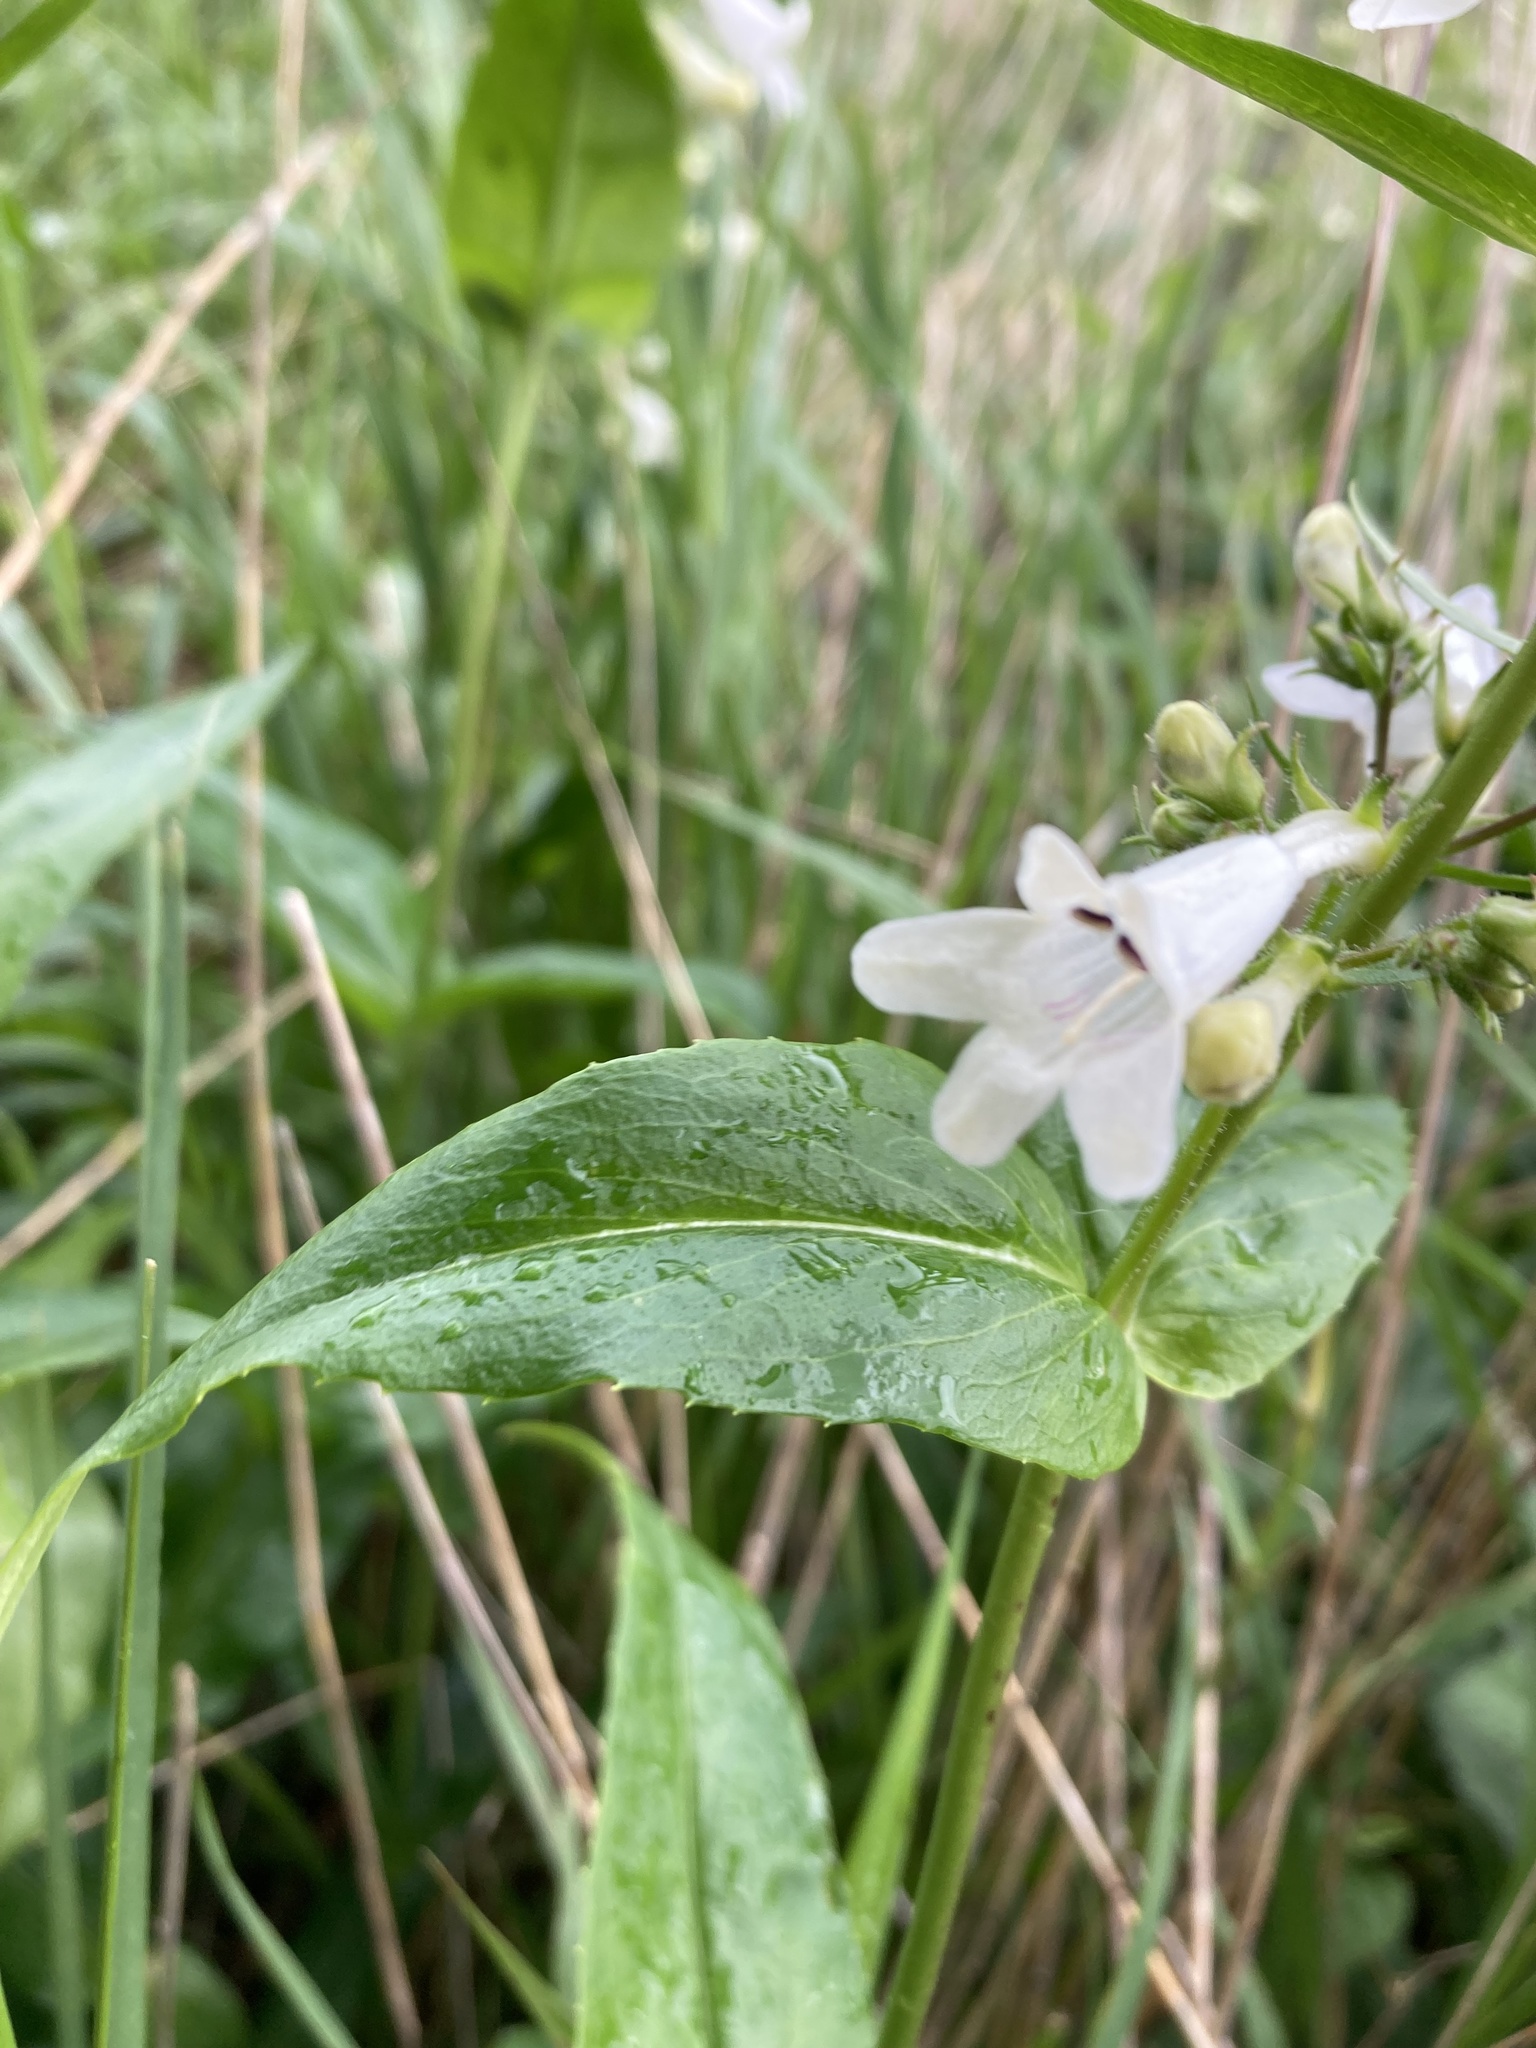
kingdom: Plantae
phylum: Tracheophyta
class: Magnoliopsida
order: Lamiales
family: Plantaginaceae
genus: Penstemon
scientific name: Penstemon digitalis
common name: Foxglove beardtongue
